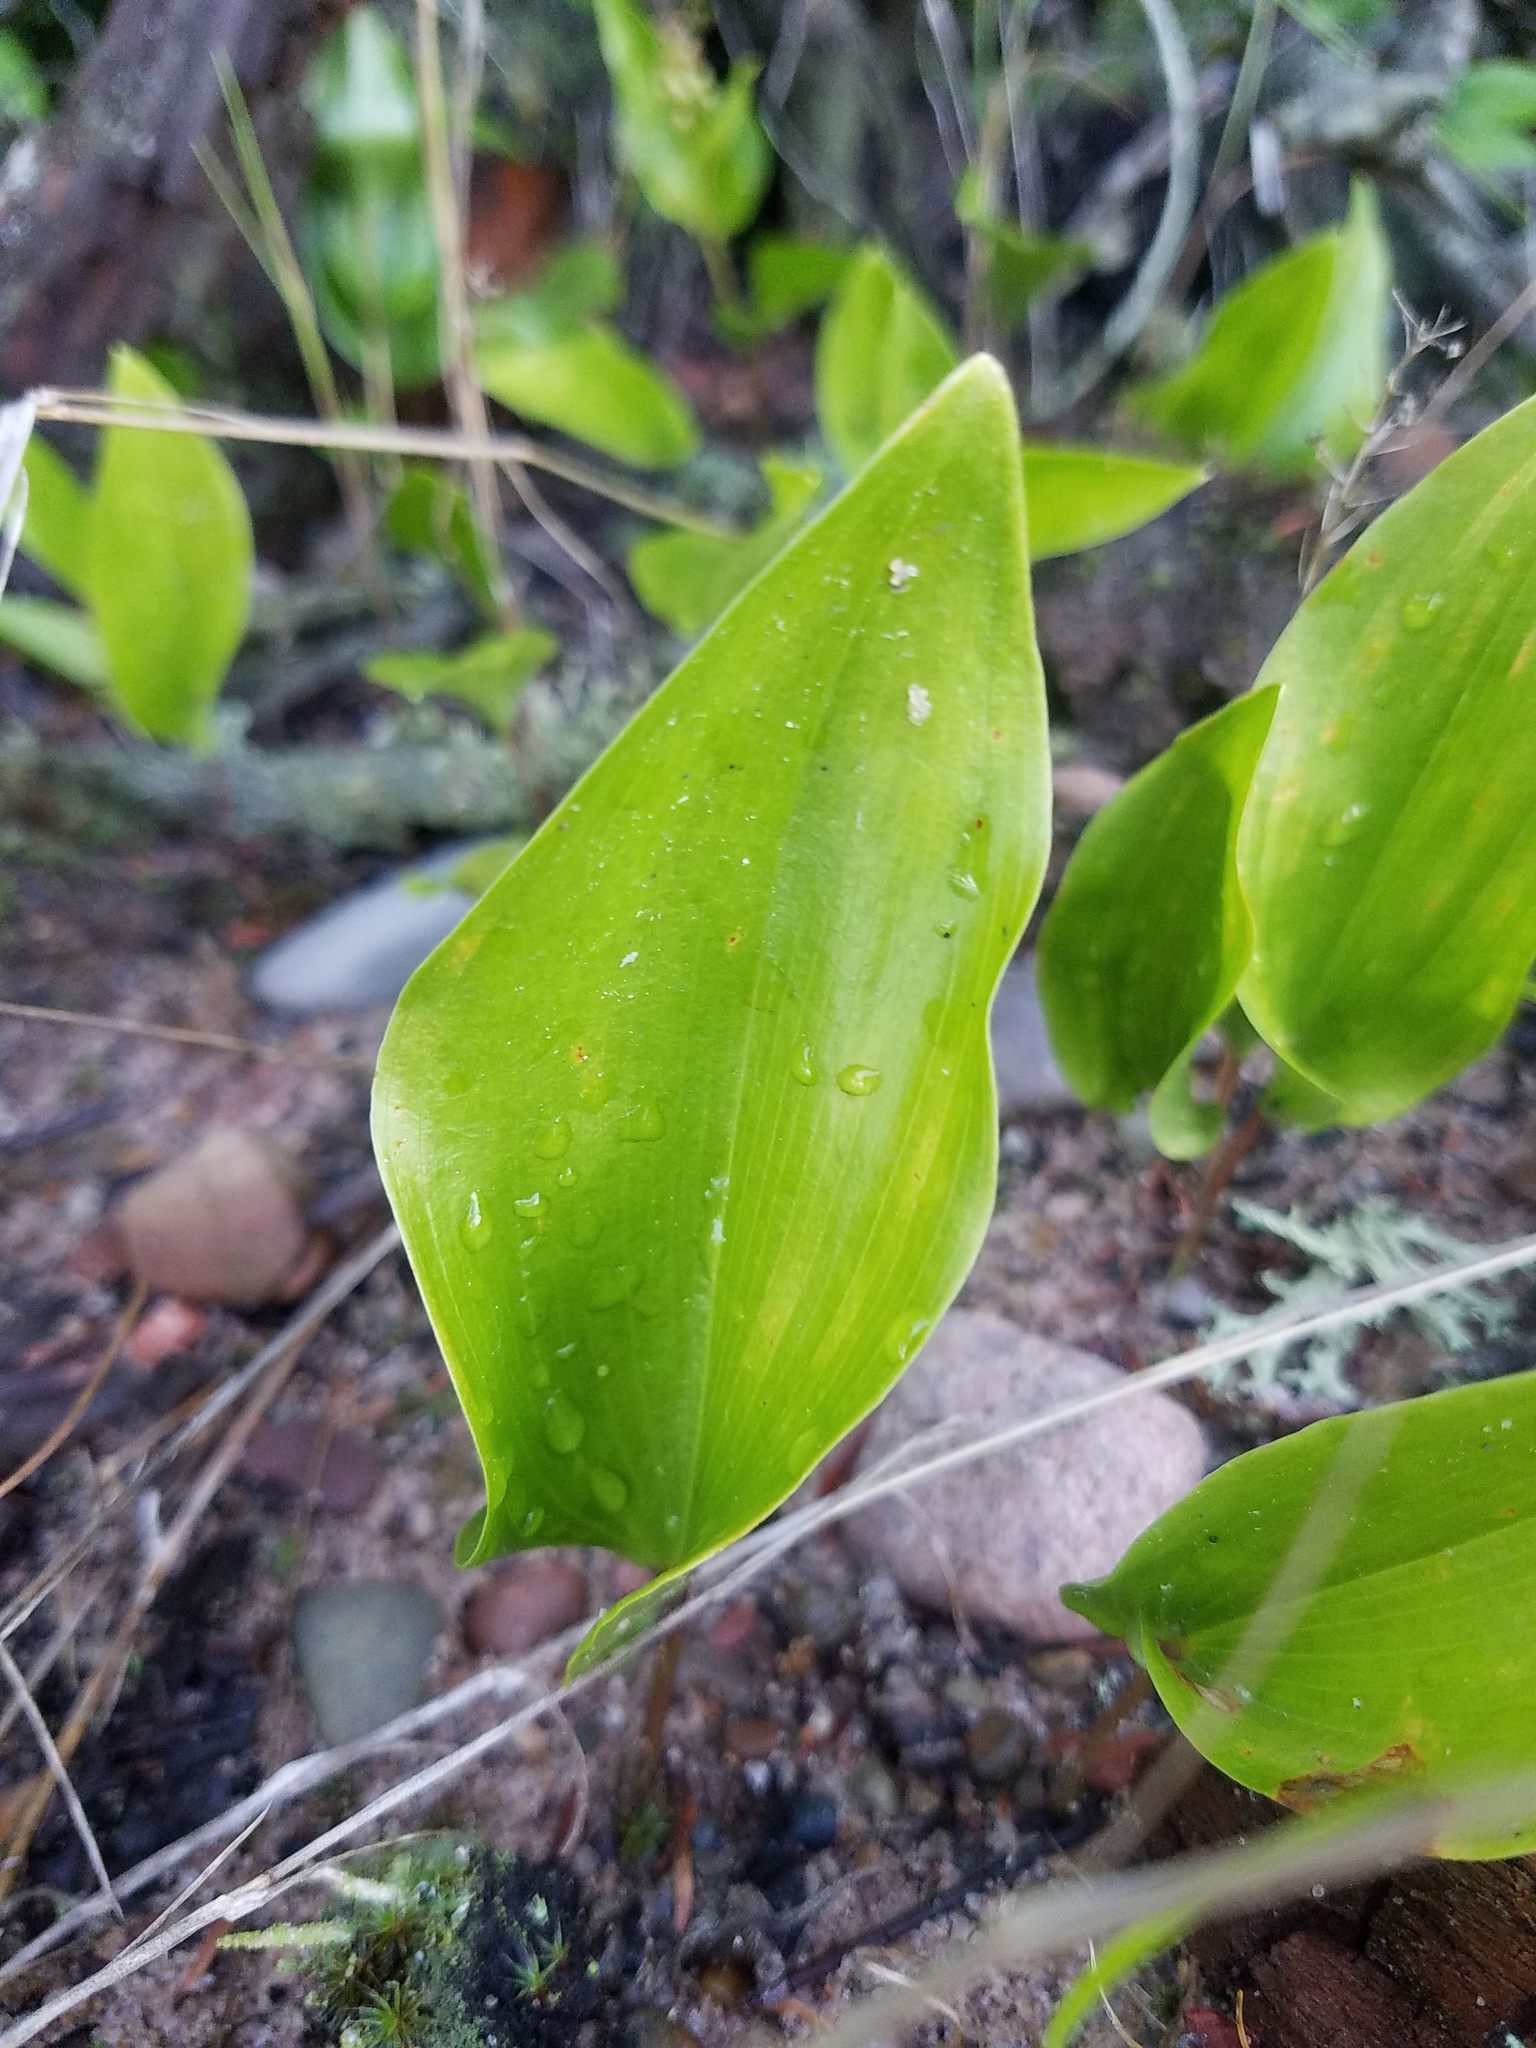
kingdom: Plantae
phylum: Tracheophyta
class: Liliopsida
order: Asparagales
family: Asparagaceae
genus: Maianthemum
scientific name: Maianthemum canadense
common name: False lily-of-the-valley
